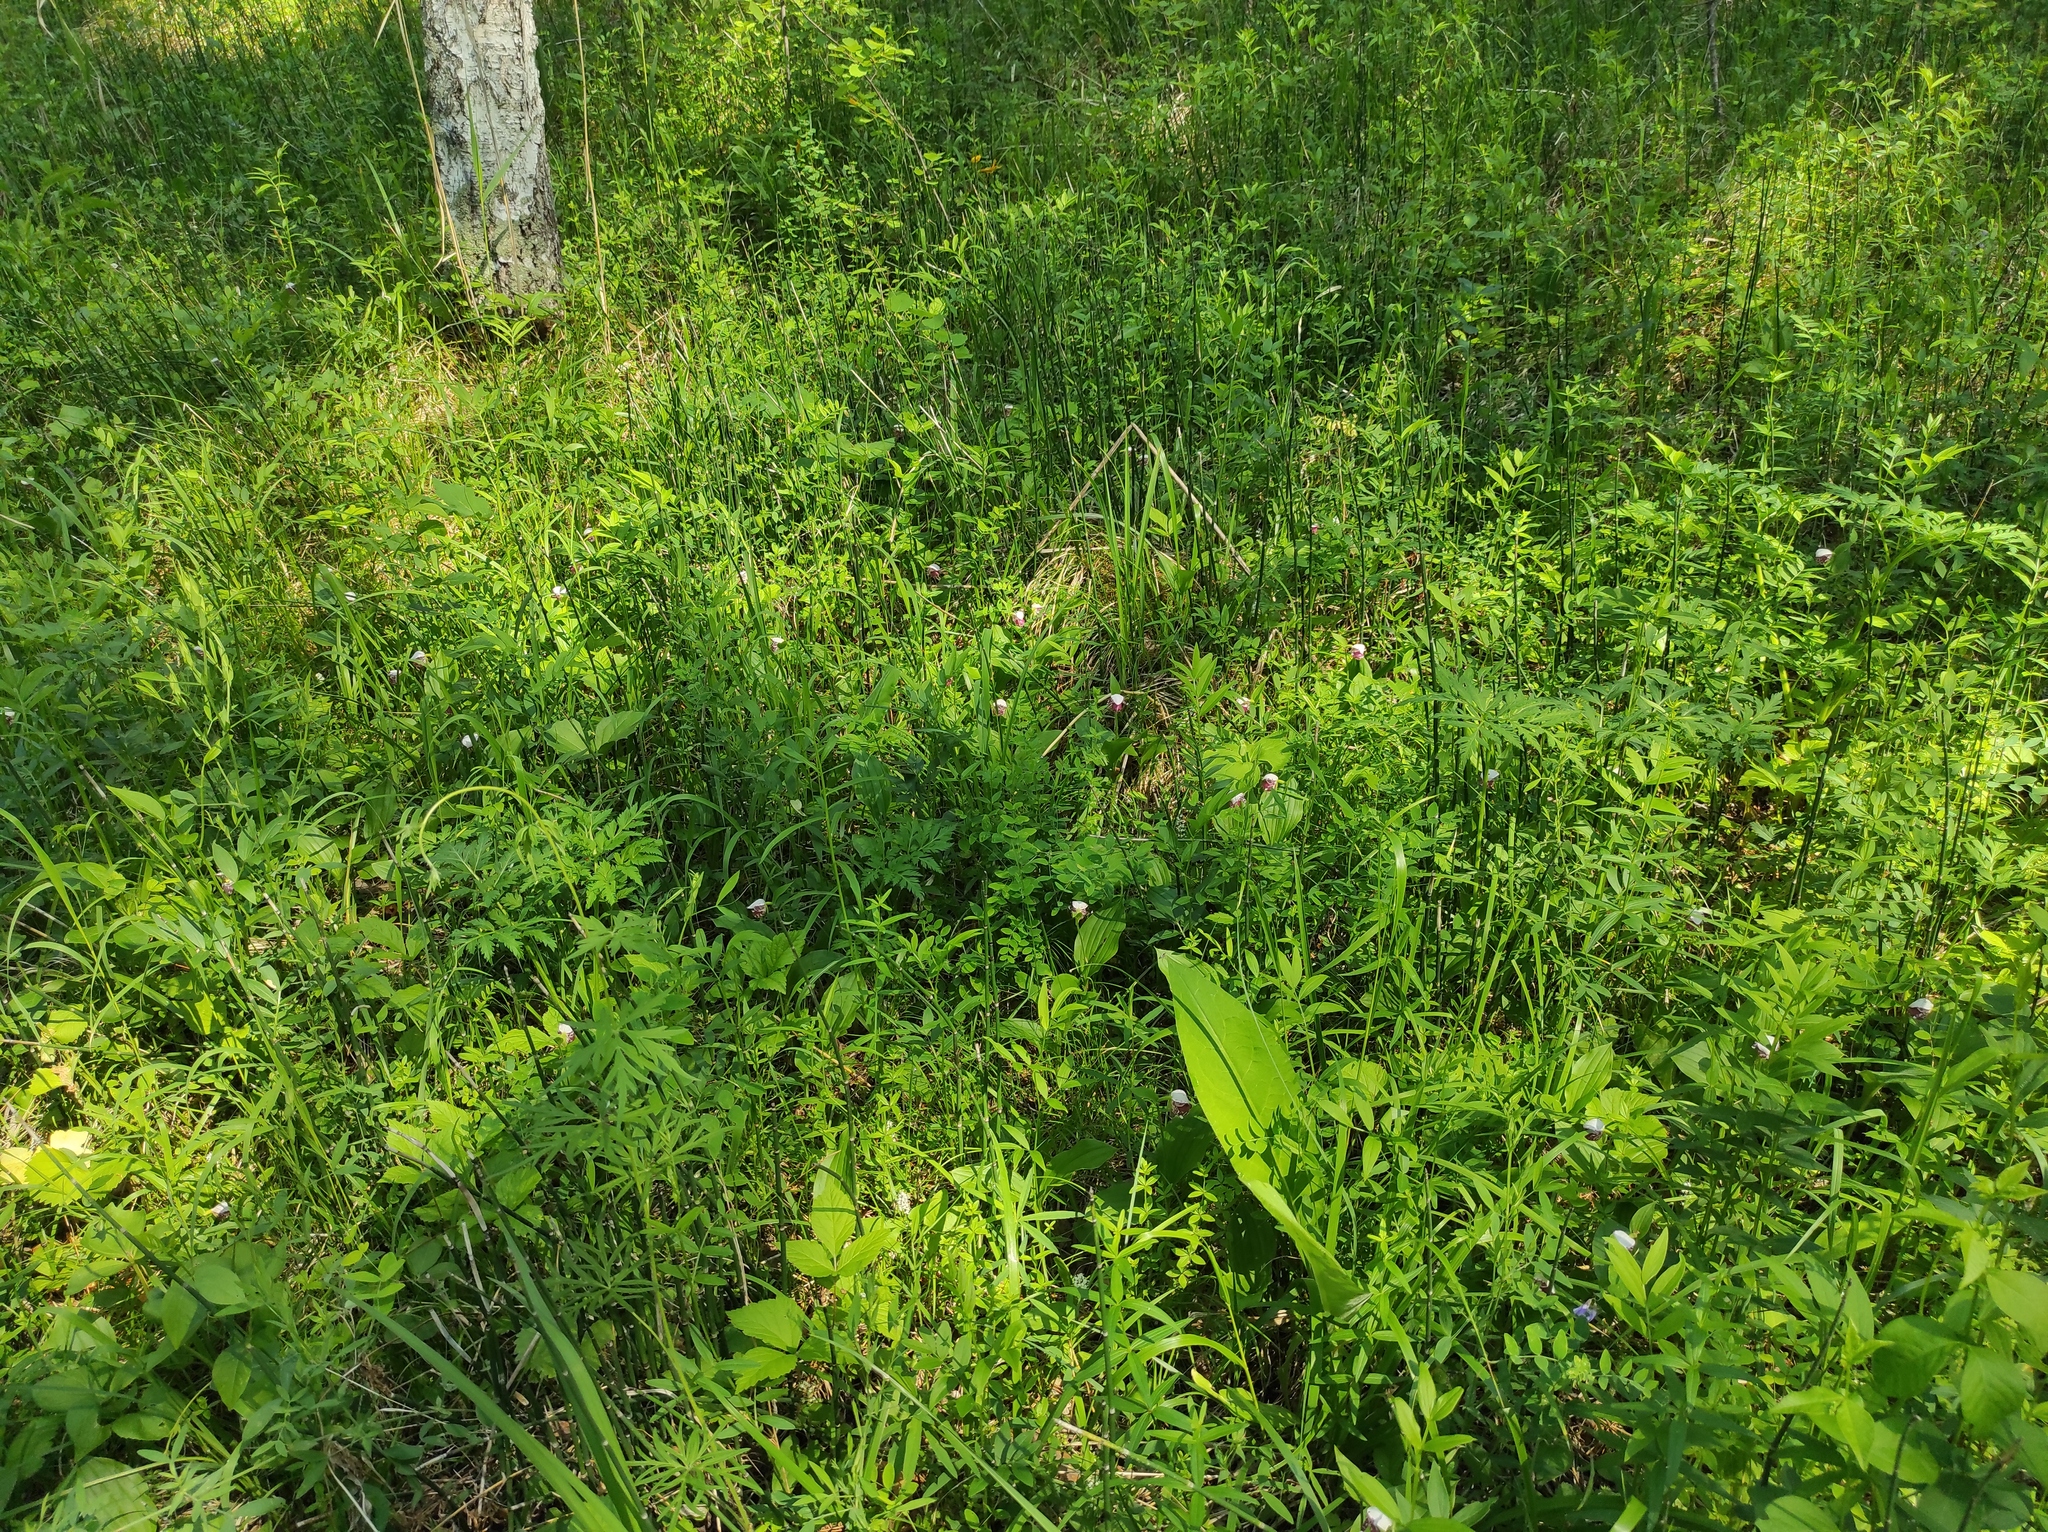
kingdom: Plantae
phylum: Tracheophyta
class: Liliopsida
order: Asparagales
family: Orchidaceae
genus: Cypripedium
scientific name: Cypripedium guttatum
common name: Pink lady slipper
